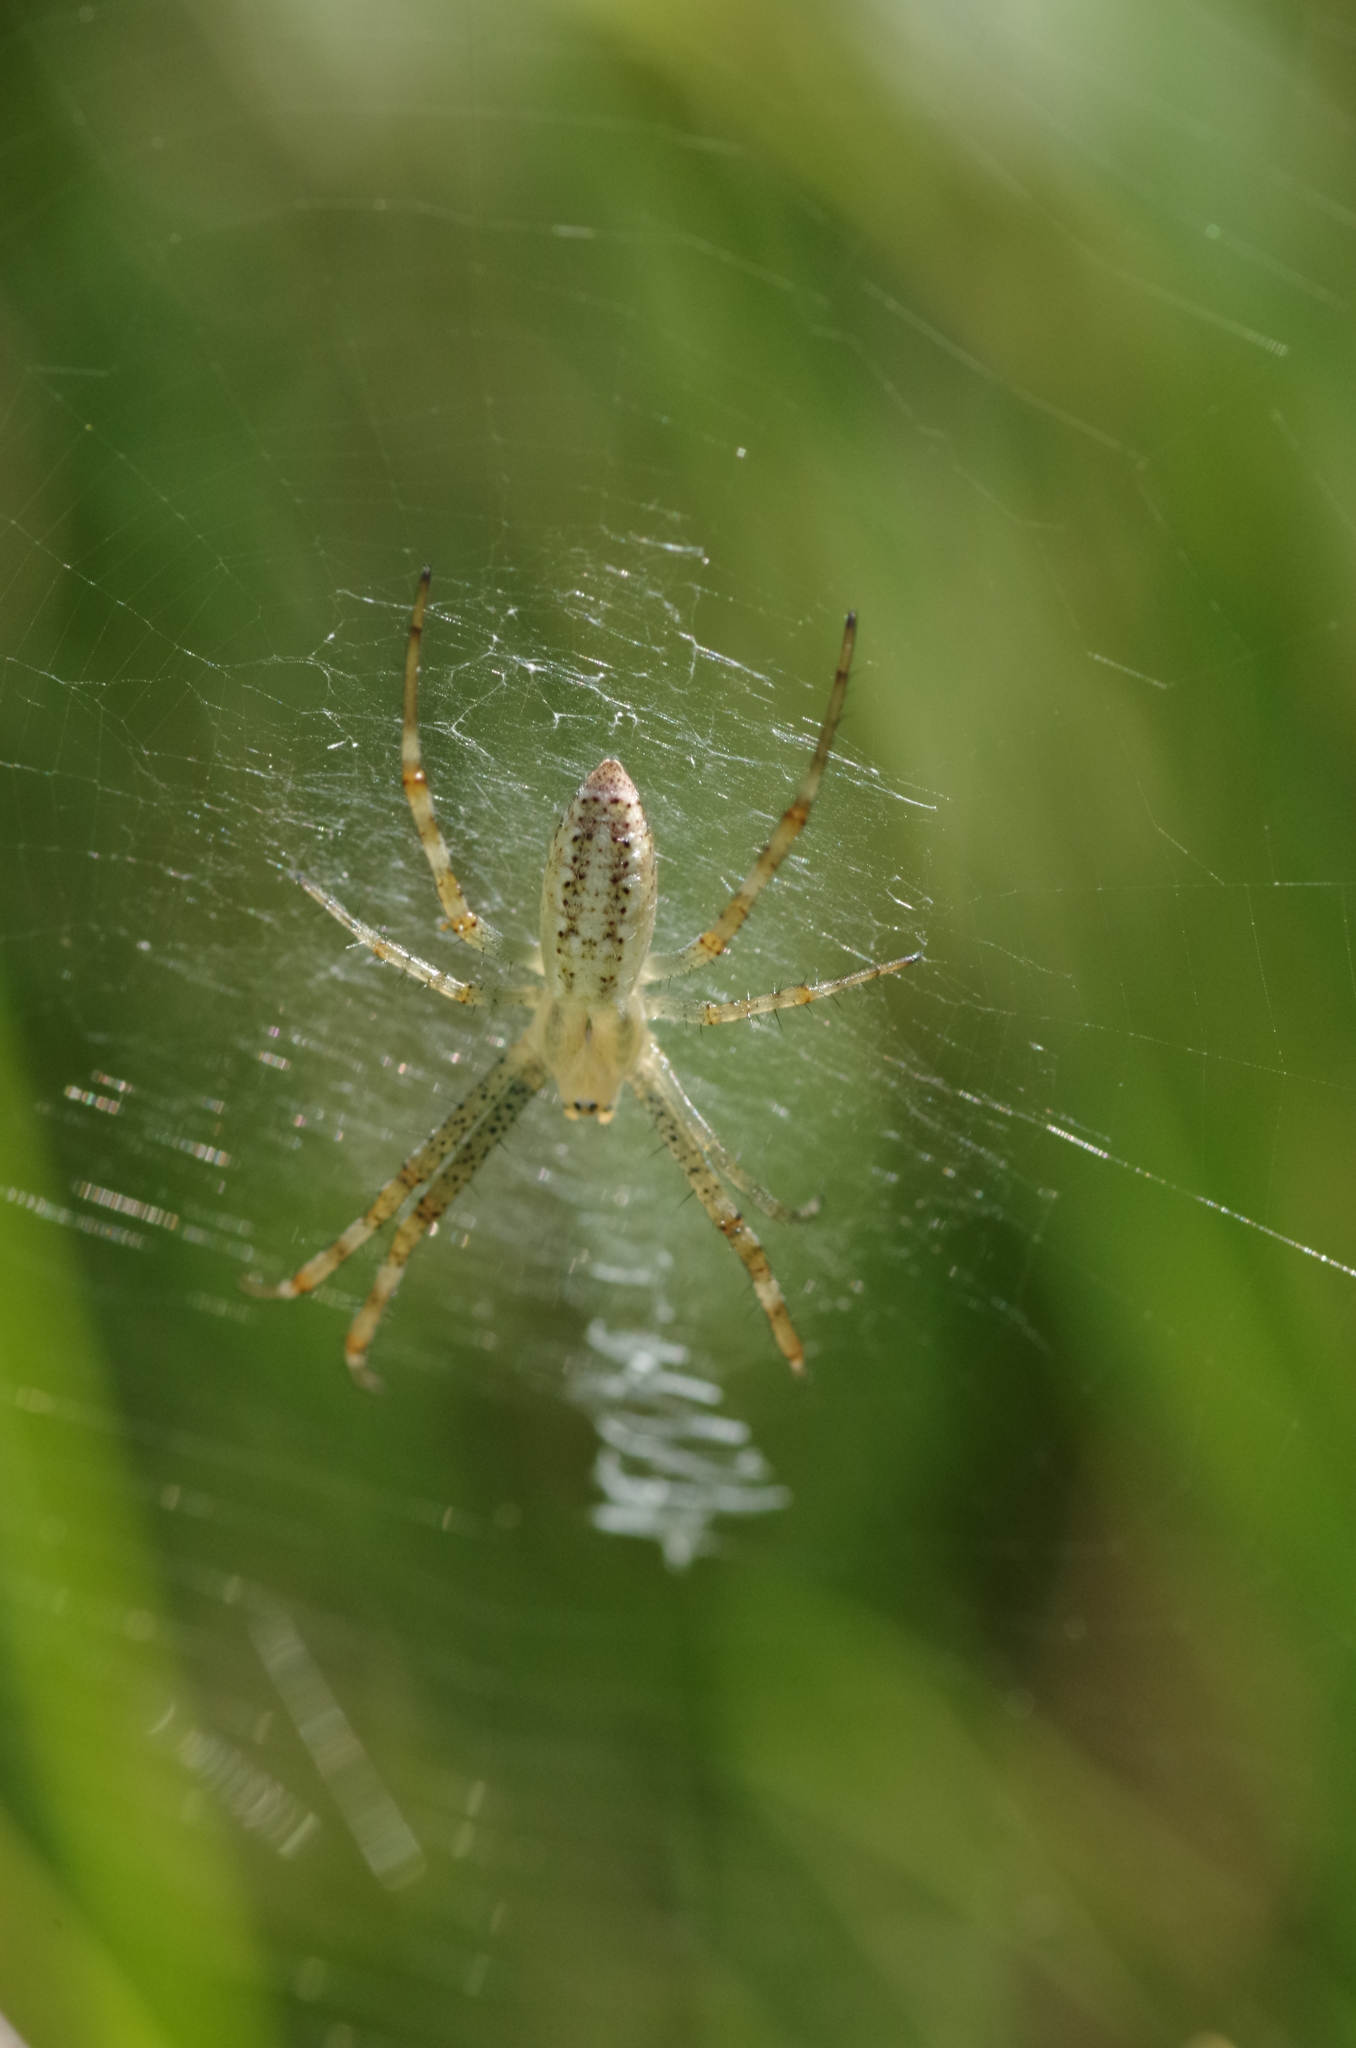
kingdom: Animalia
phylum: Arthropoda
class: Arachnida
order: Araneae
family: Araneidae
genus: Argiope
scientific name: Argiope bruennichi
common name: Wasp spider
